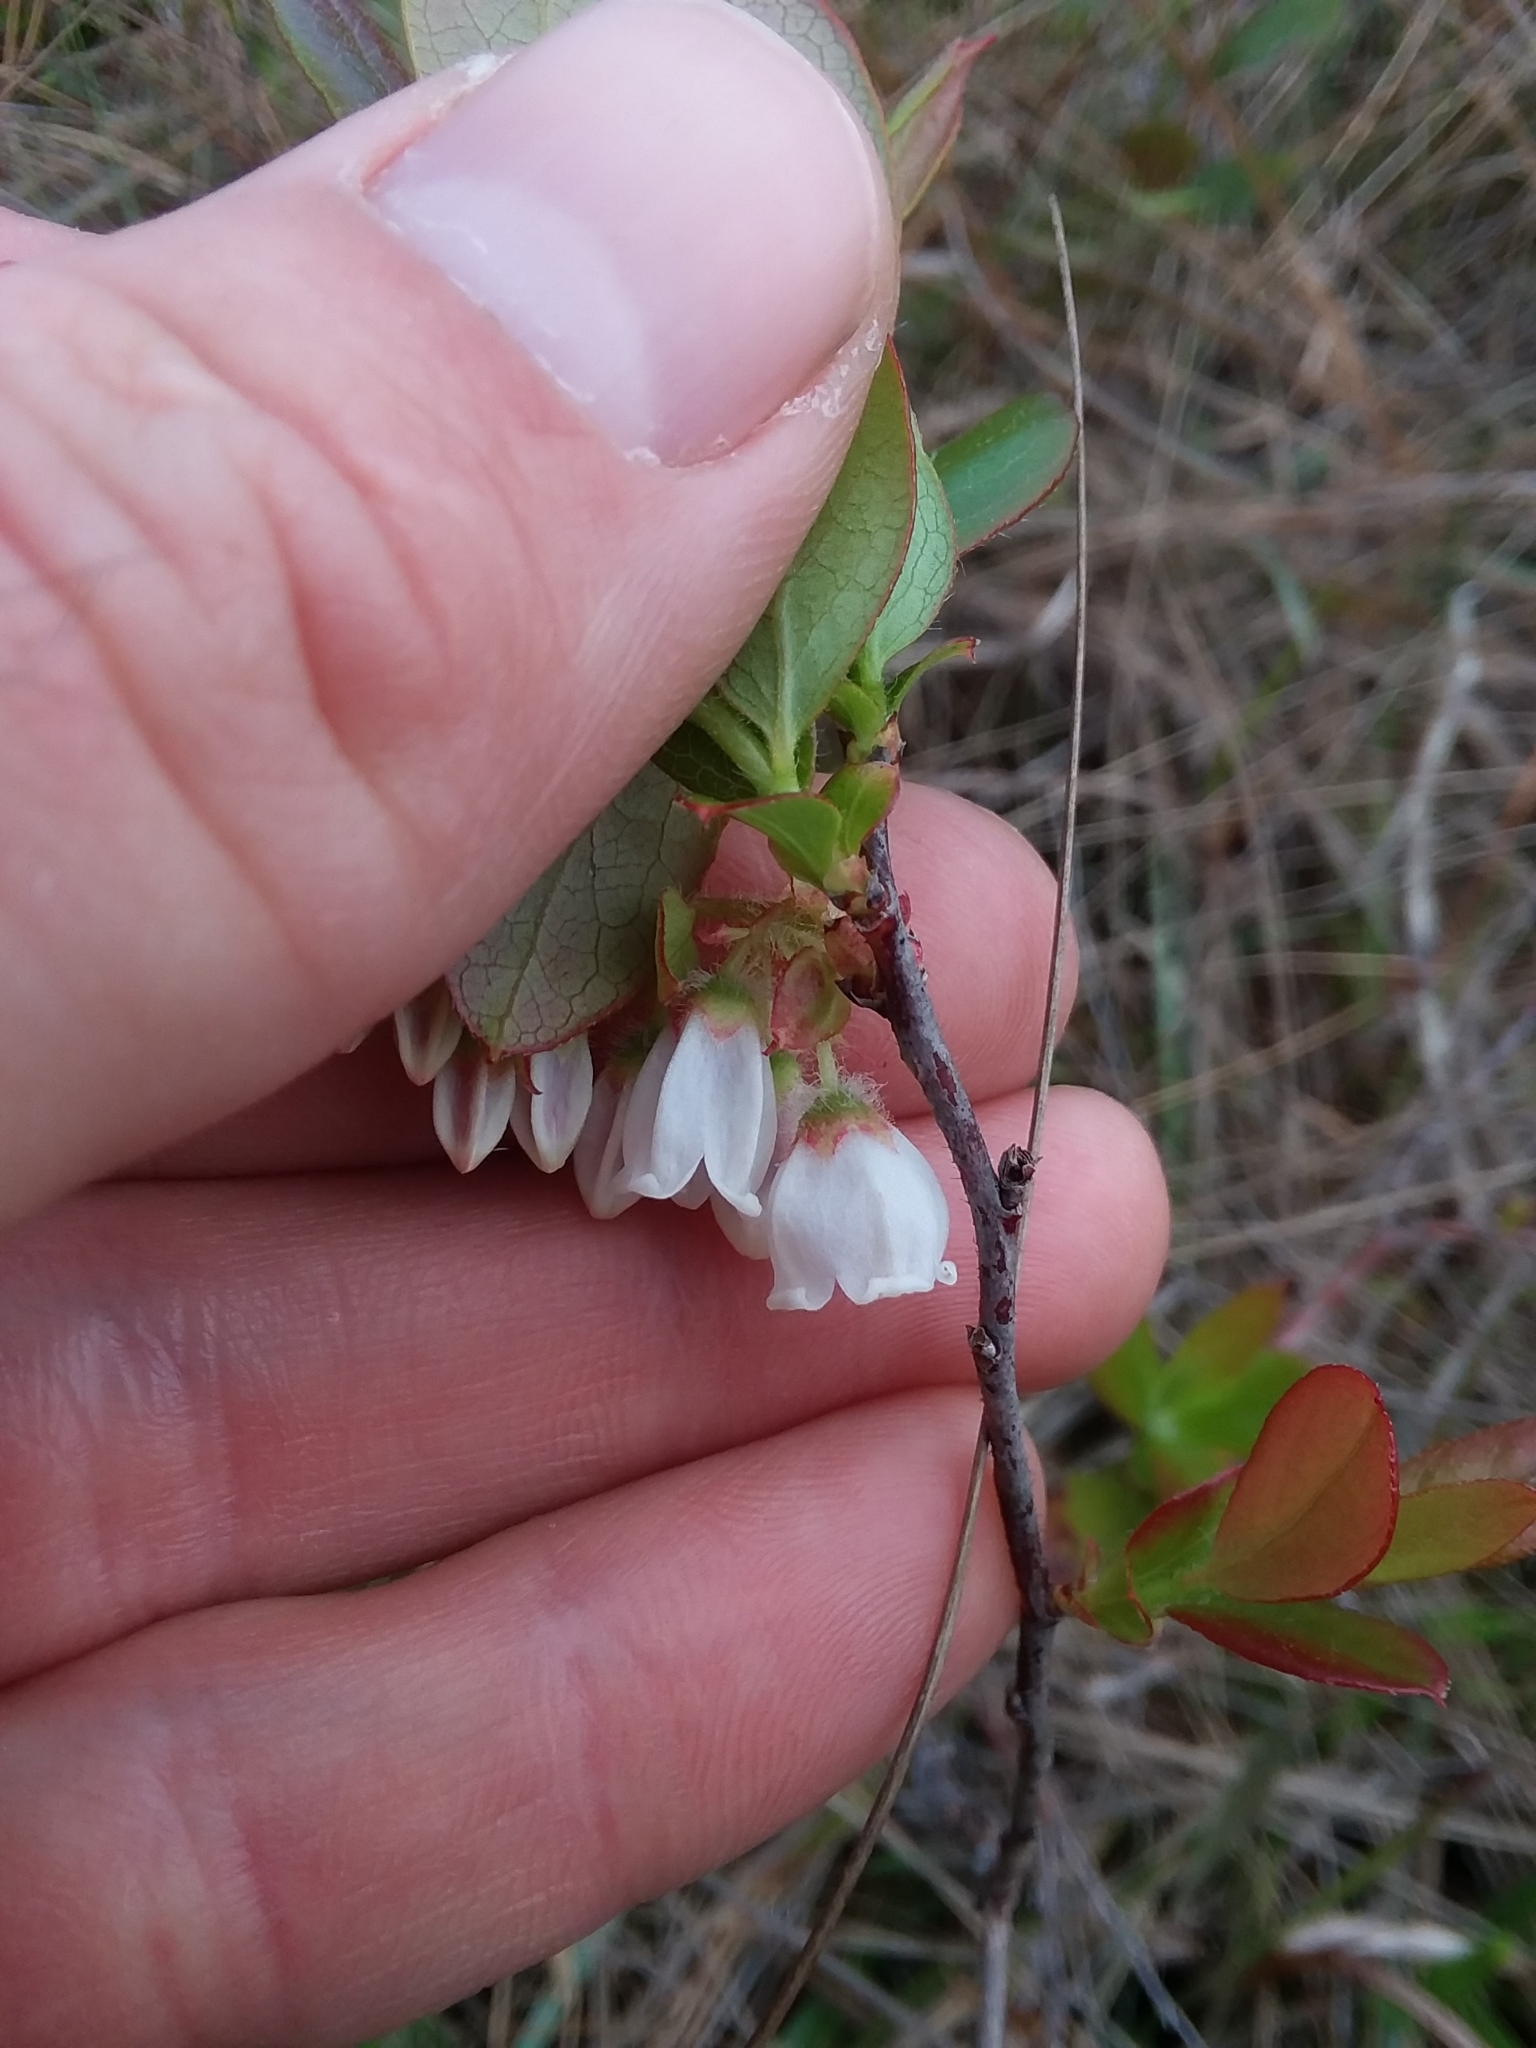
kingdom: Plantae
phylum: Tracheophyta
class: Magnoliopsida
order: Ericales
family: Ericaceae
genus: Gaylussacia
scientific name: Gaylussacia mosieri
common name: Hirsute huckleberry
